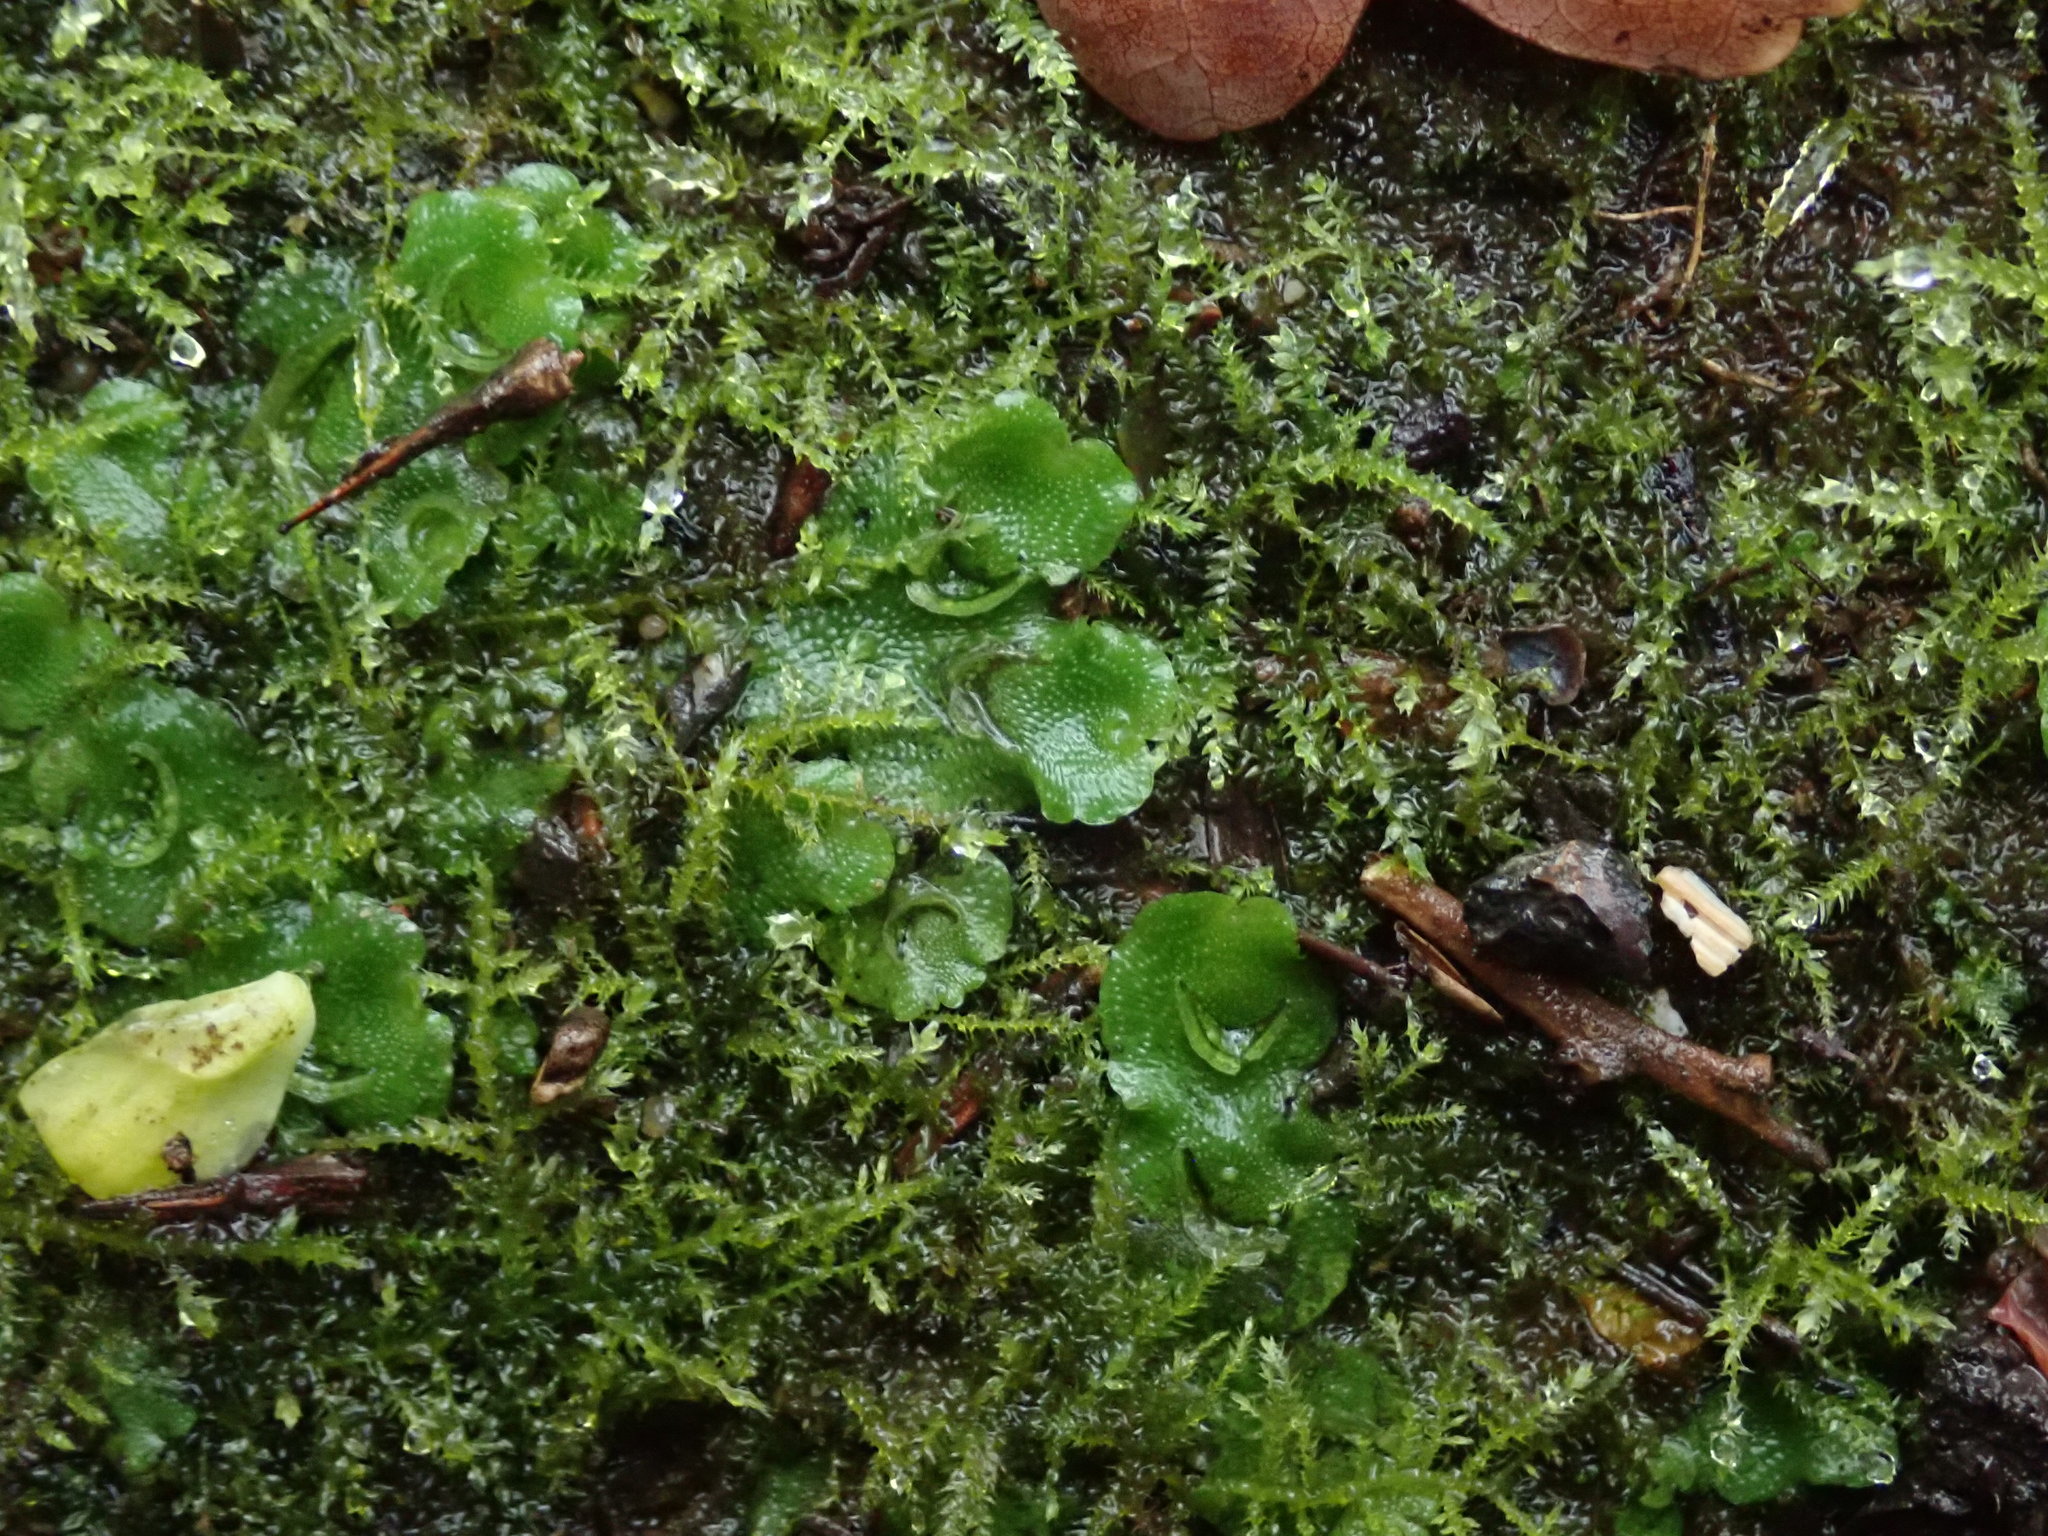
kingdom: Plantae
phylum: Marchantiophyta
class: Marchantiopsida
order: Lunulariales
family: Lunulariaceae
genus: Lunularia
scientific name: Lunularia cruciata
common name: Crescent-cup liverwort
